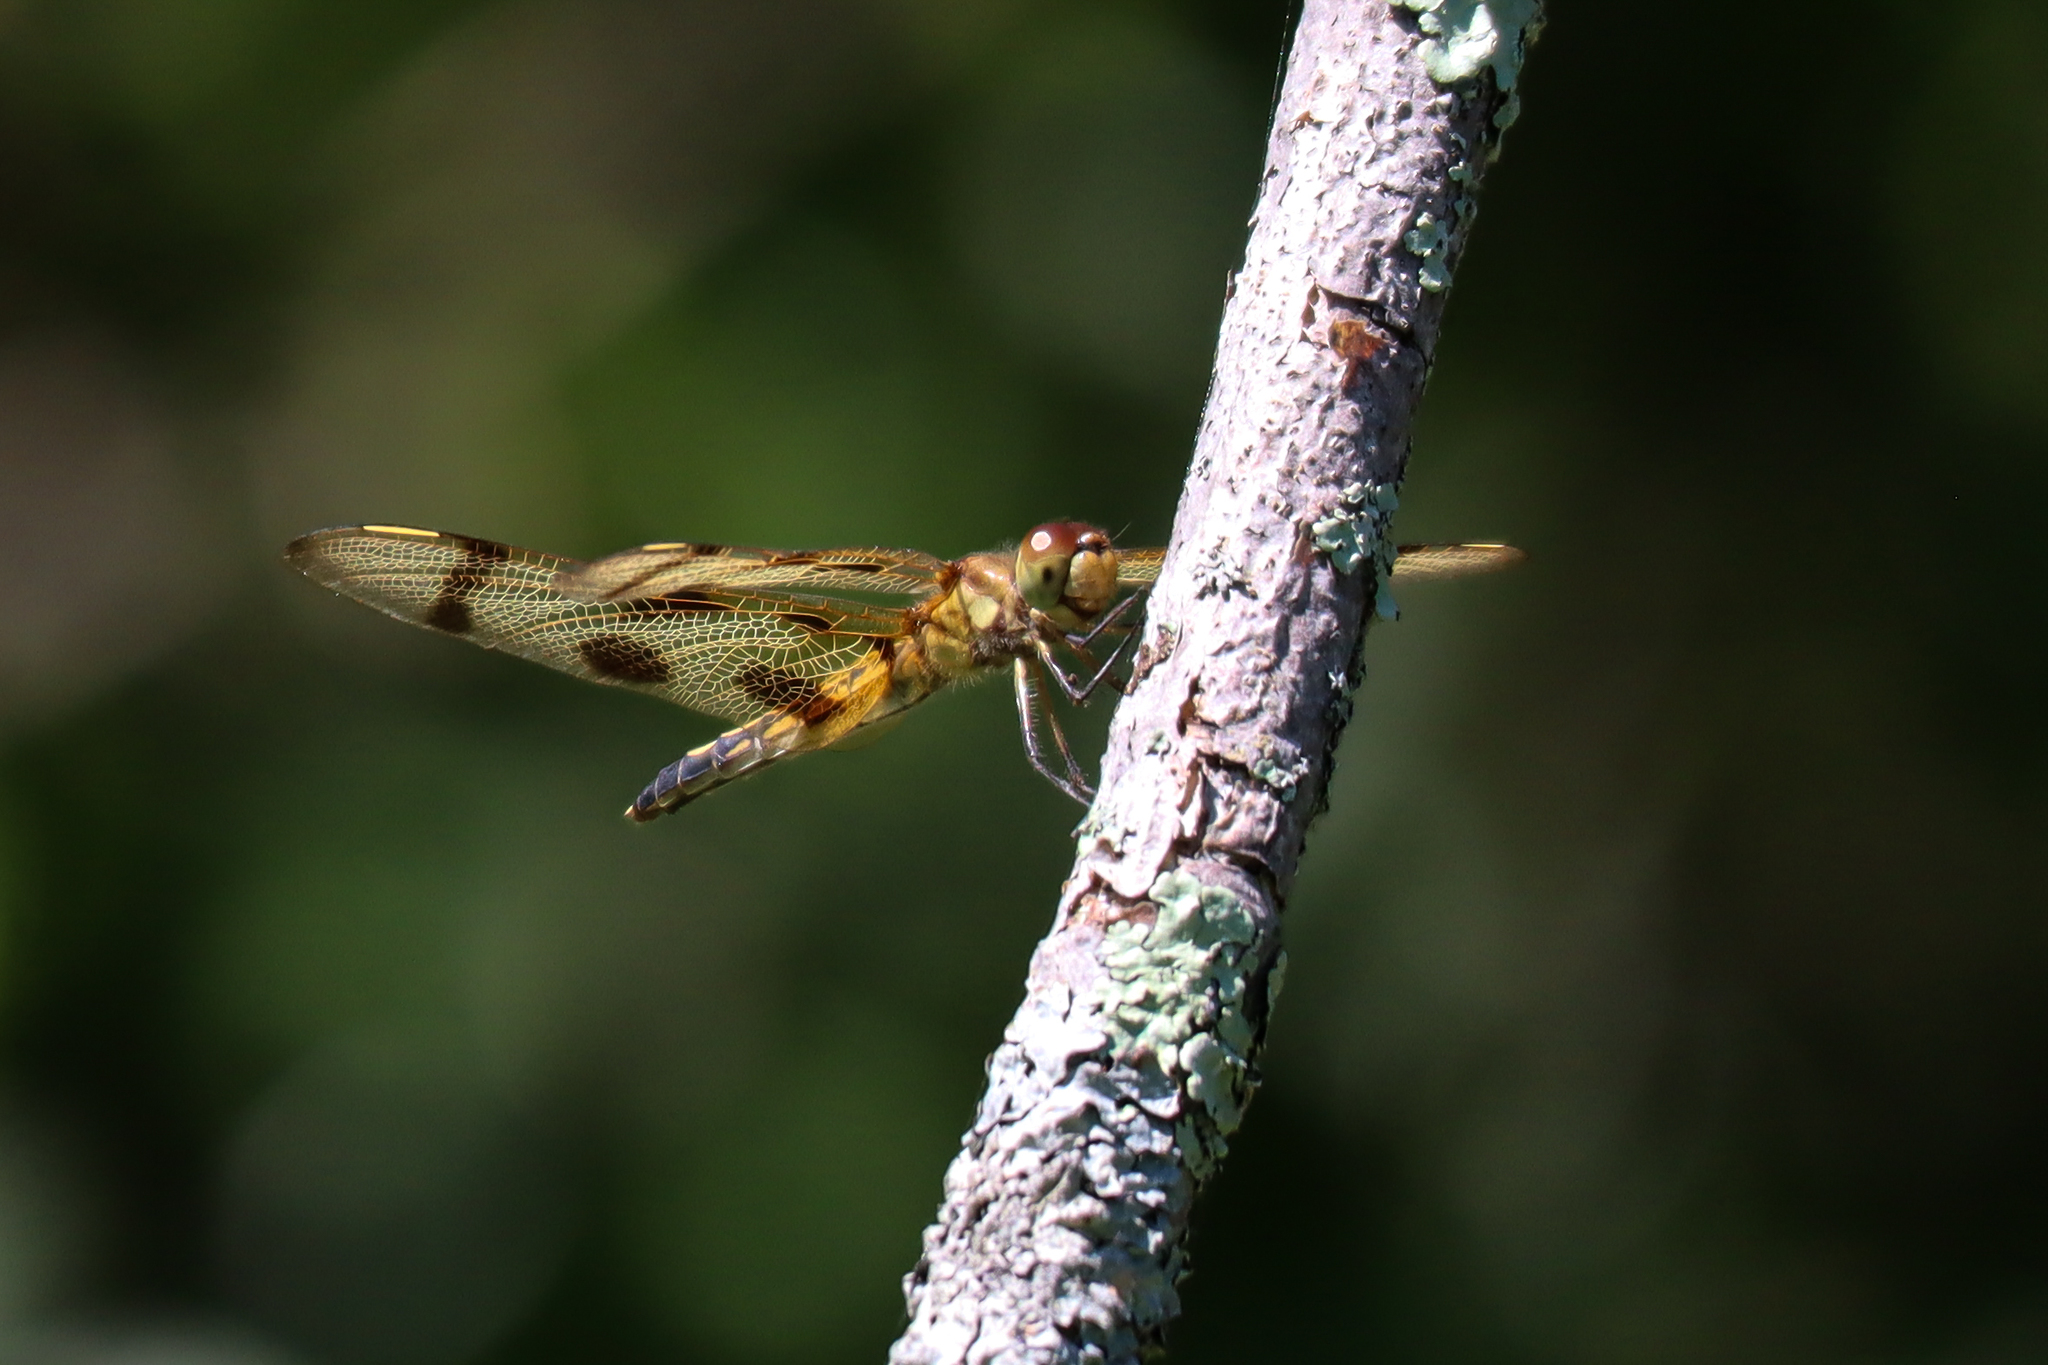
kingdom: Animalia
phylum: Arthropoda
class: Insecta
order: Odonata
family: Libellulidae
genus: Celithemis
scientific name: Celithemis eponina
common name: Halloween pennant
